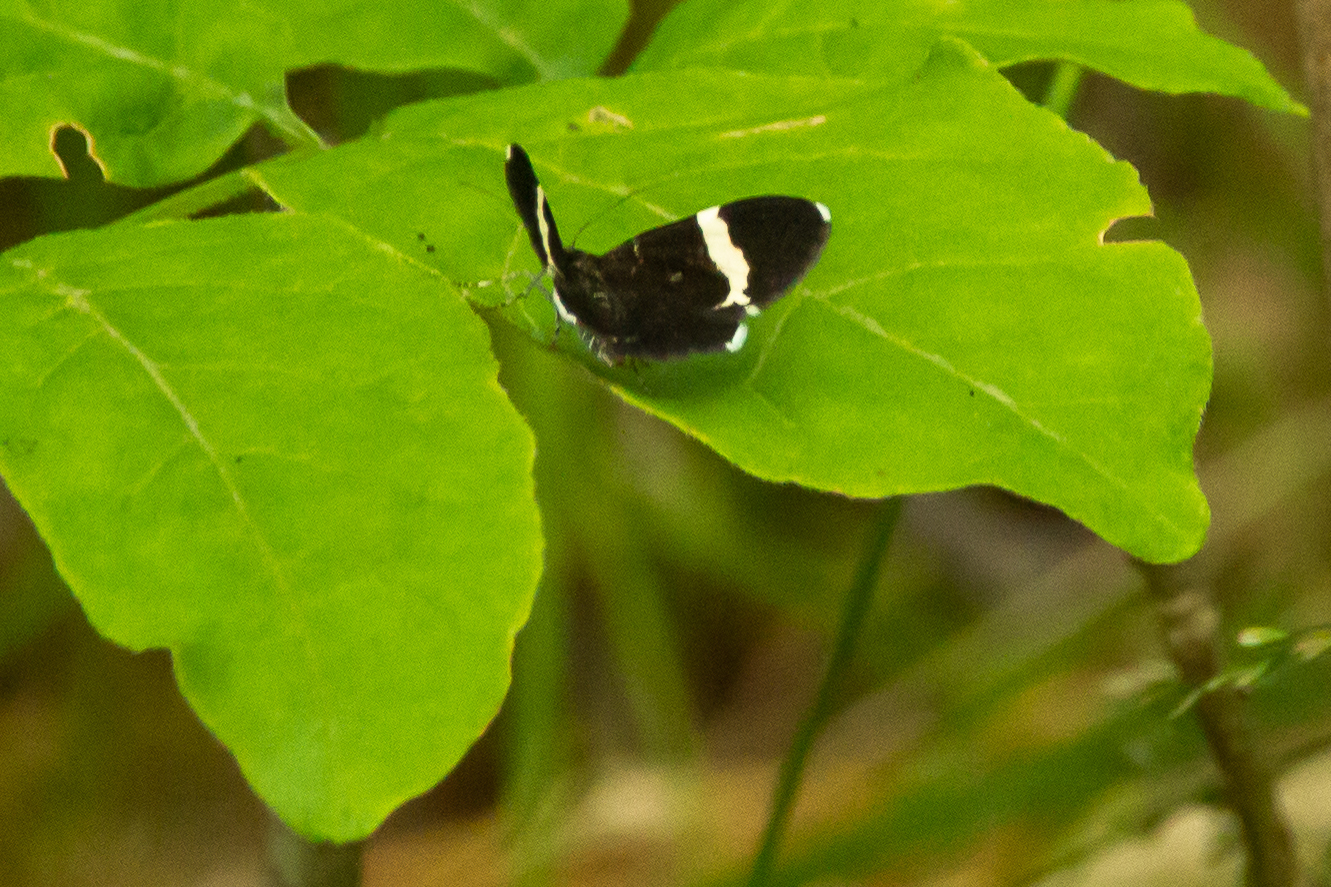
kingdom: Animalia
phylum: Arthropoda
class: Insecta
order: Lepidoptera
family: Geometridae
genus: Trichodezia
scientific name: Trichodezia albovittata
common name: White striped black
